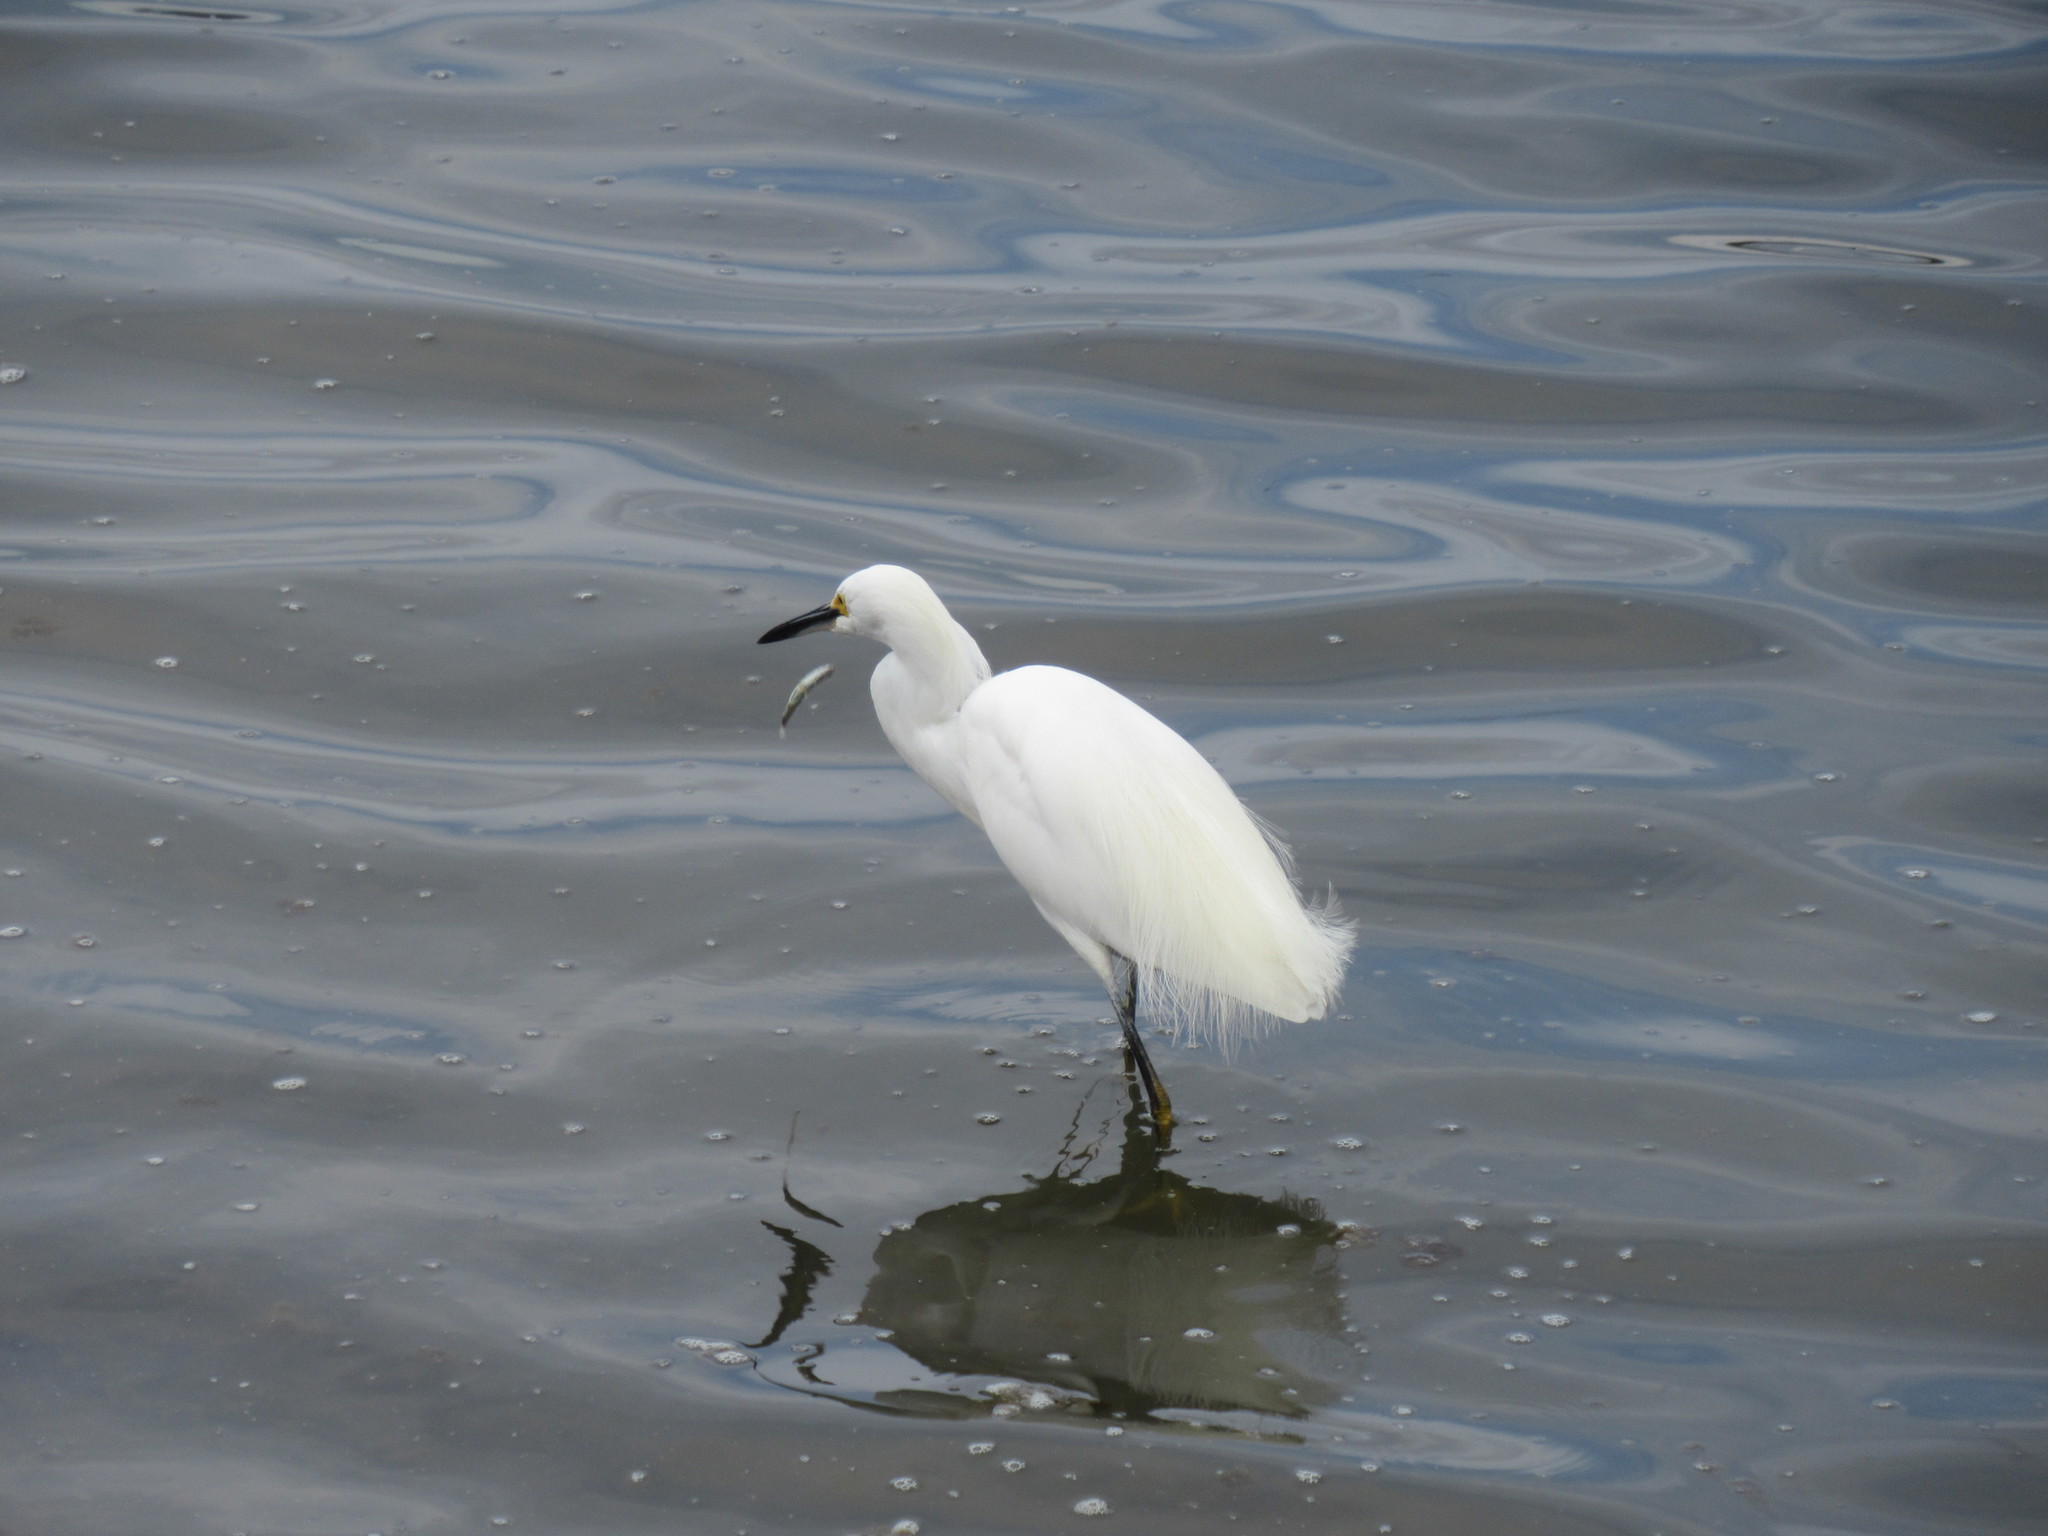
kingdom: Animalia
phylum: Chordata
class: Aves
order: Pelecaniformes
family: Ardeidae
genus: Egretta
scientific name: Egretta thula
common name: Snowy egret
